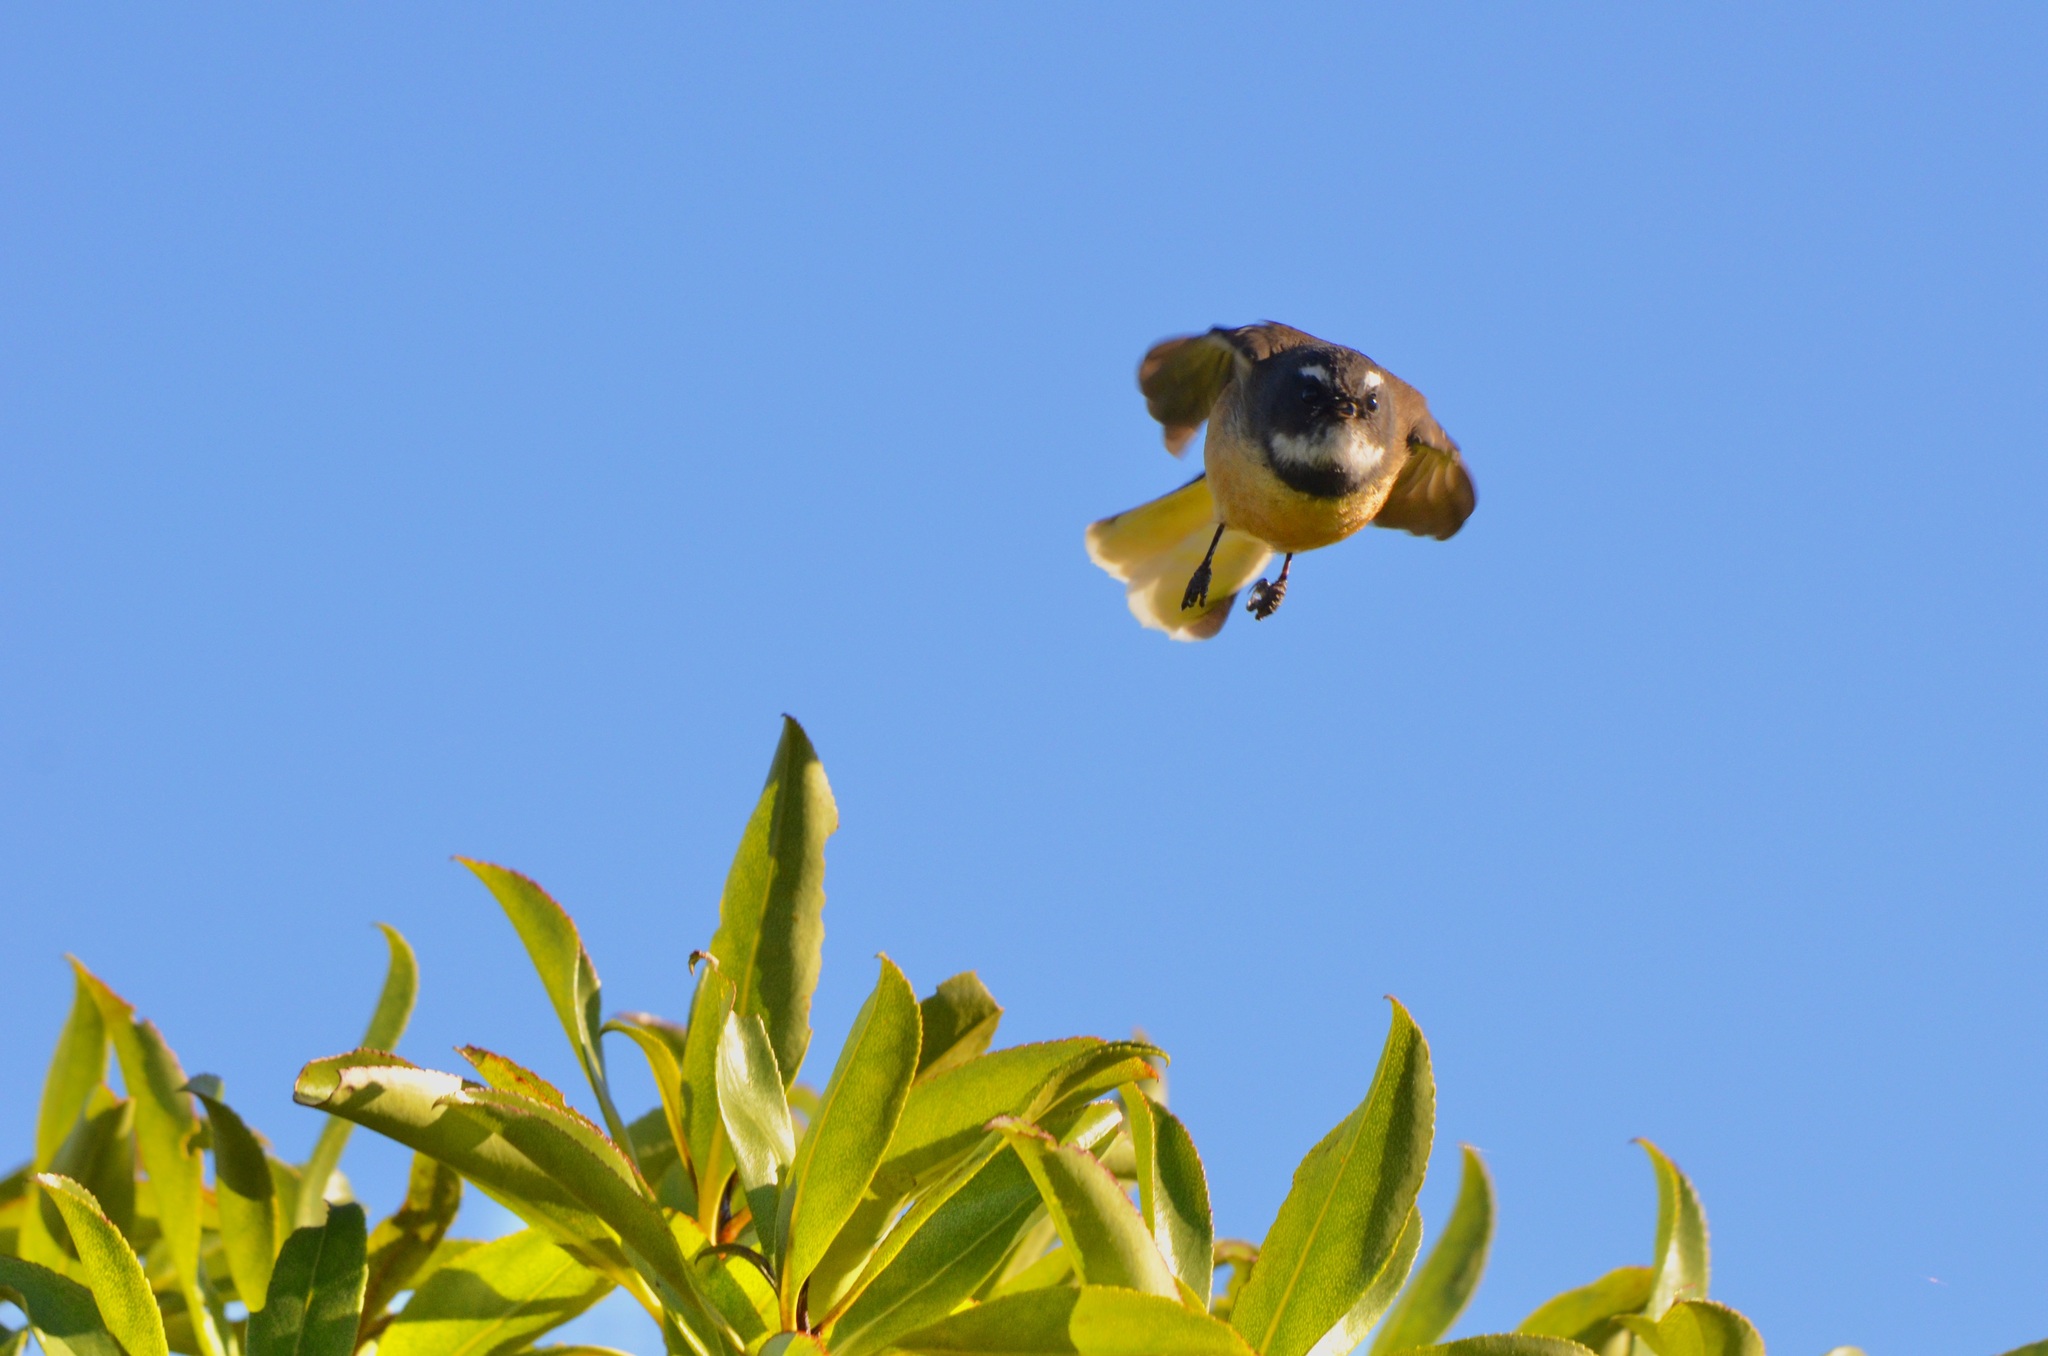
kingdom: Animalia
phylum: Chordata
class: Aves
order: Passeriformes
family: Rhipiduridae
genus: Rhipidura
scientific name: Rhipidura fuliginosa
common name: New zealand fantail
